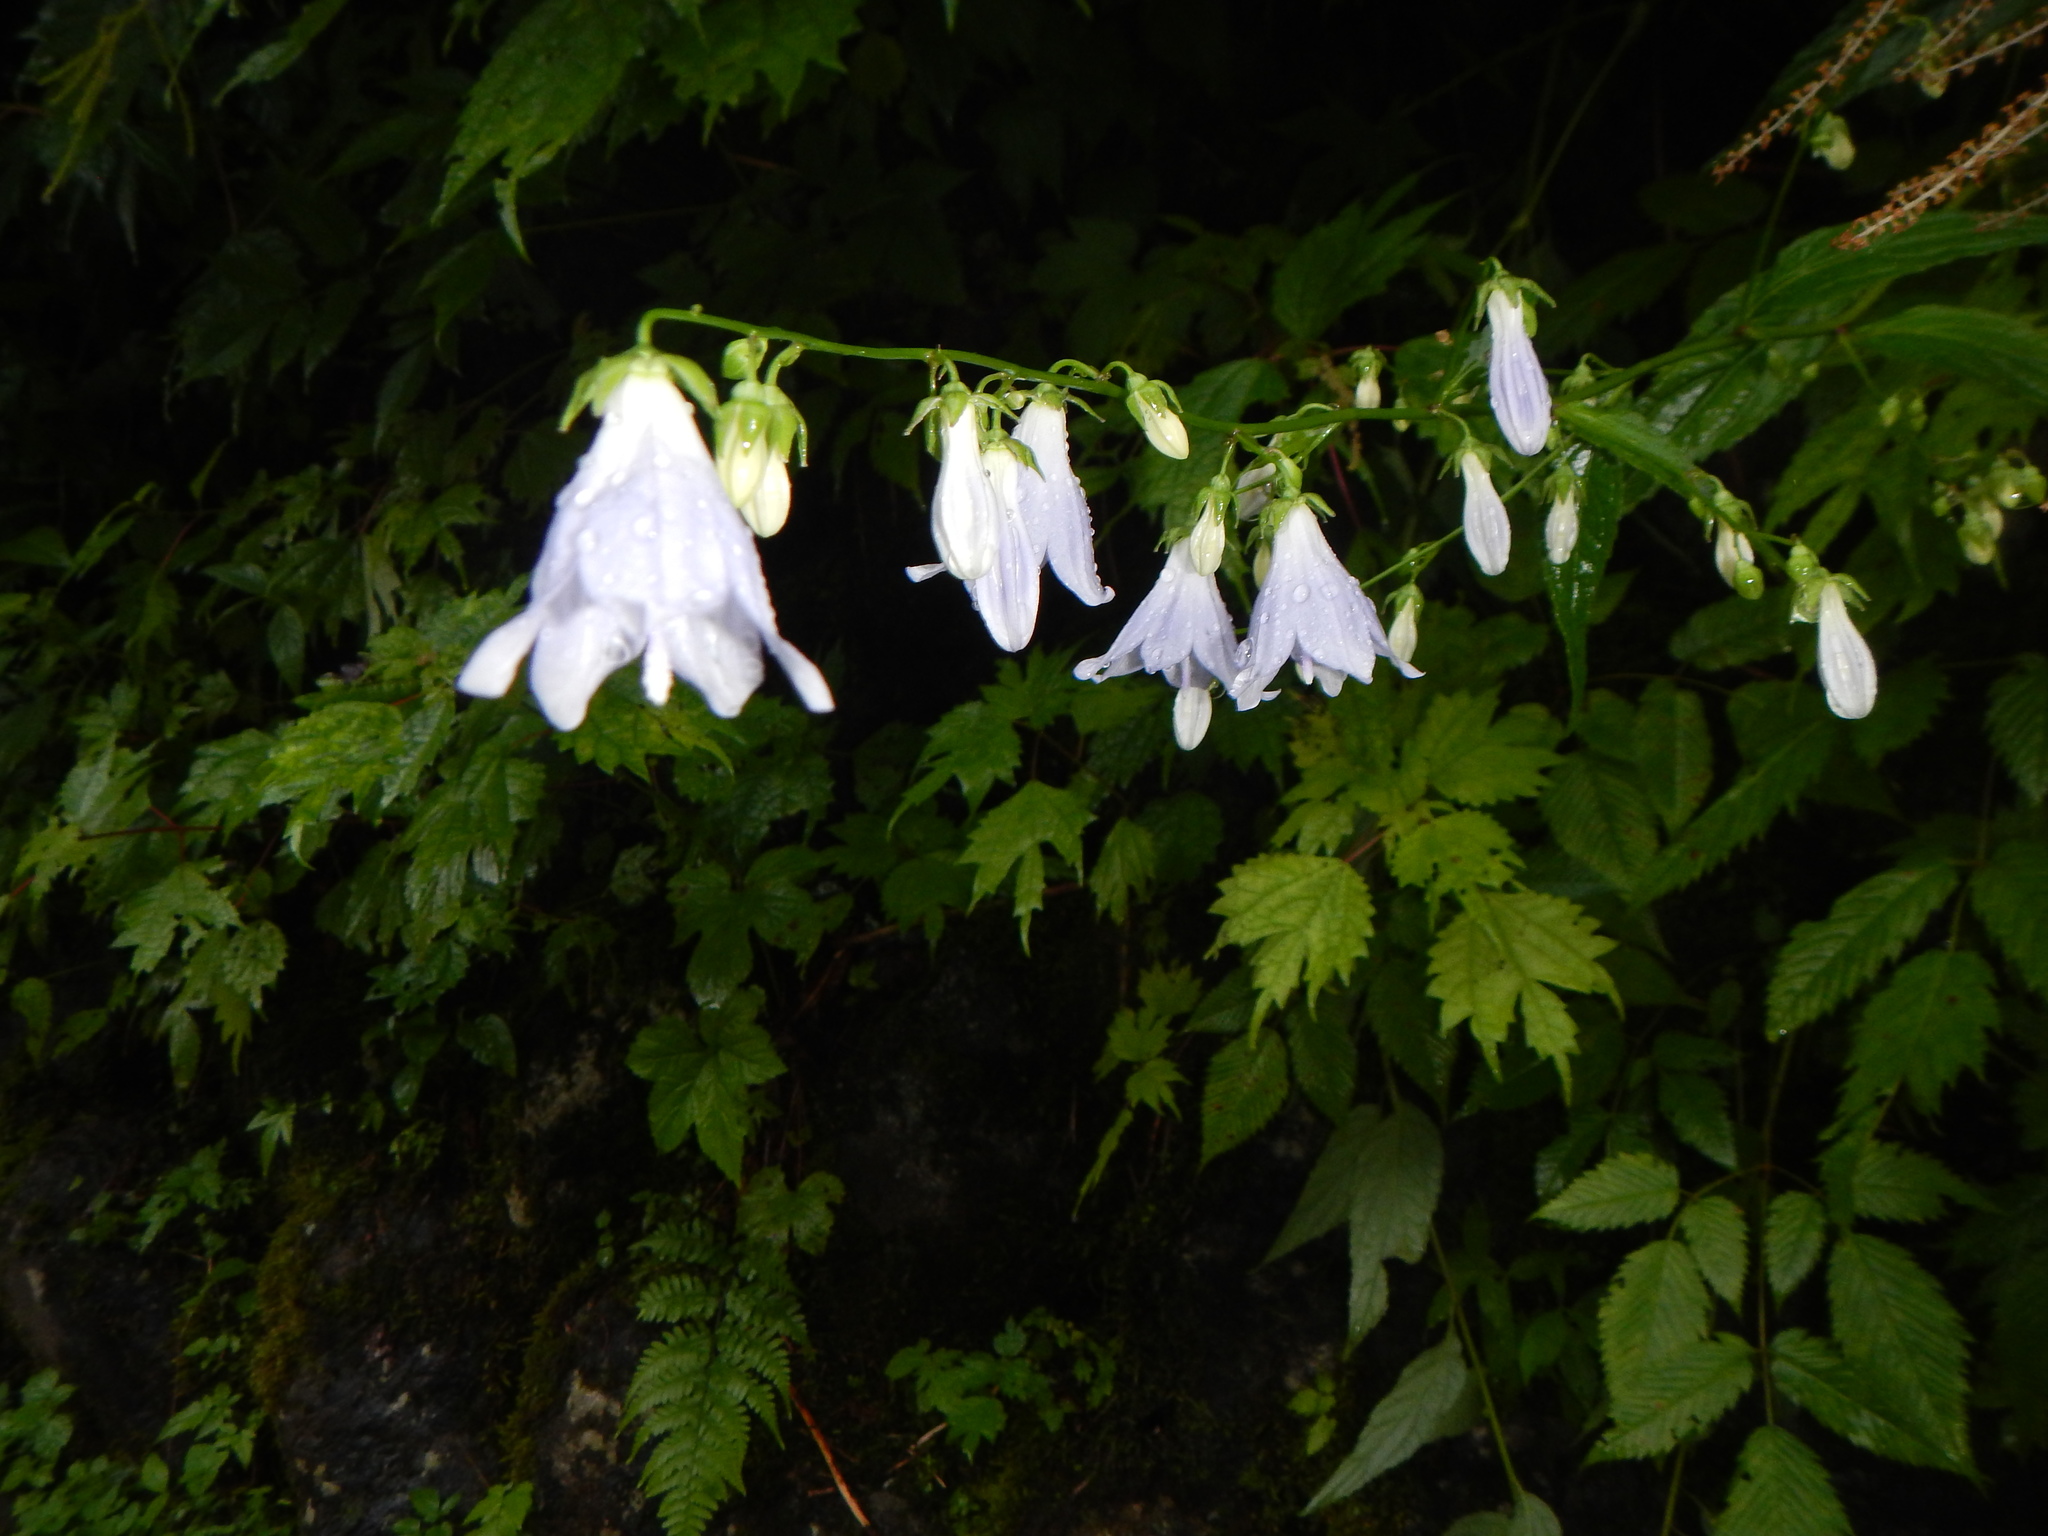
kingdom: Plantae
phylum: Tracheophyta
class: Magnoliopsida
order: Asterales
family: Campanulaceae
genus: Adenophora
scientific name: Adenophora remotiflora
